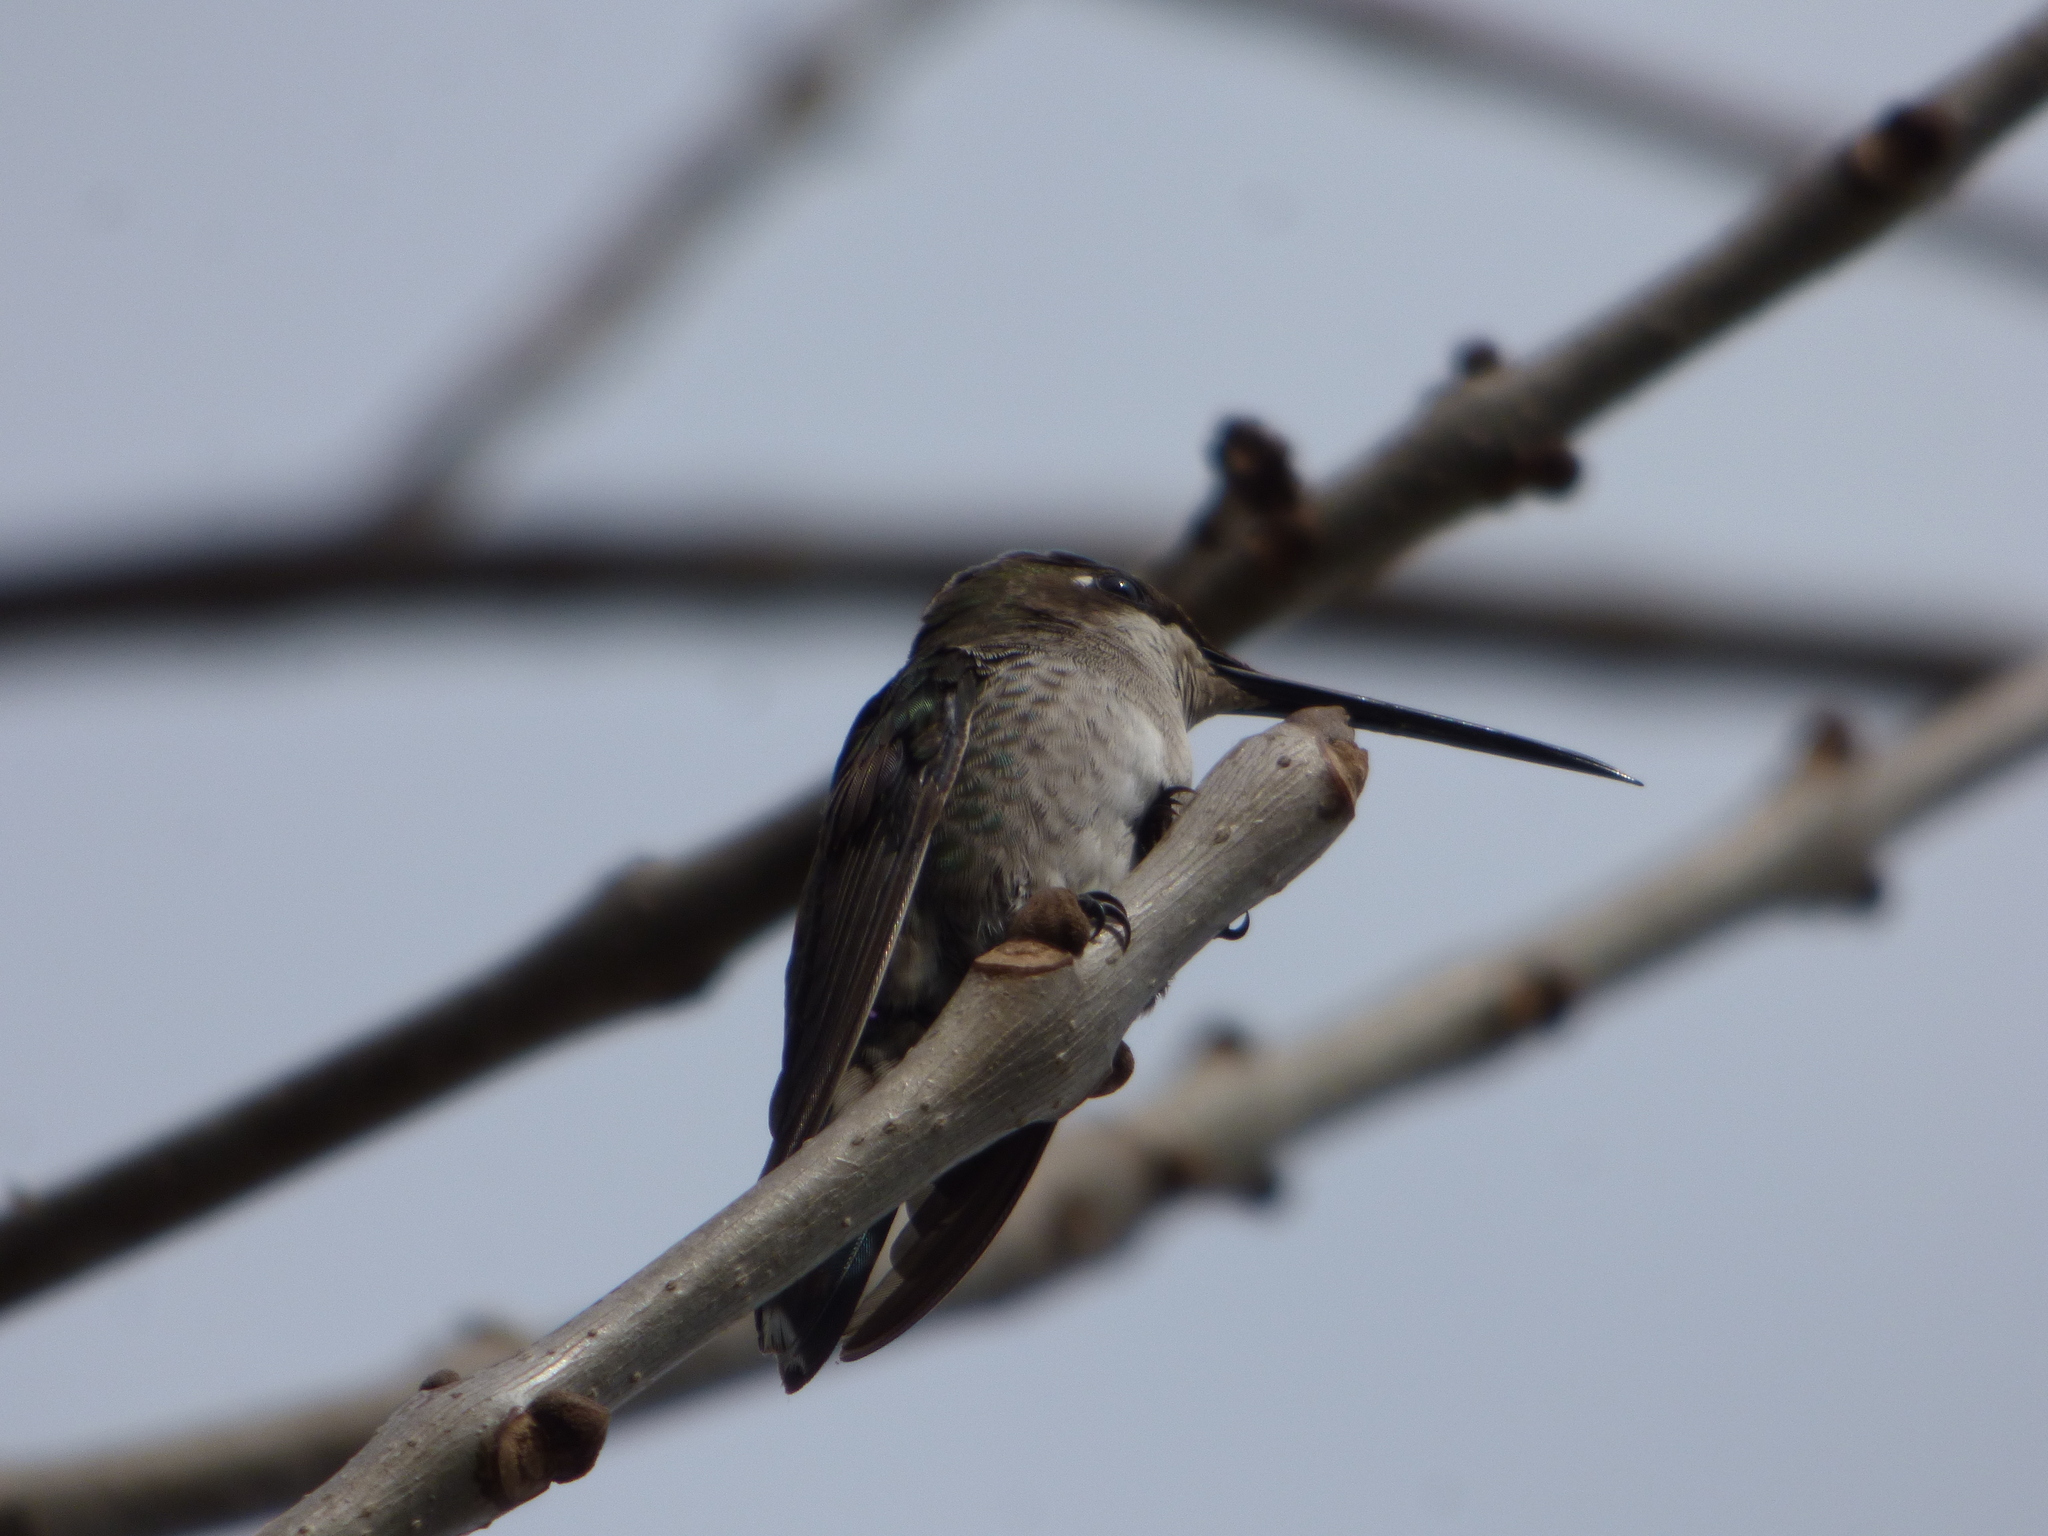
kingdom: Animalia
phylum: Chordata
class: Aves
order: Apodiformes
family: Trochilidae
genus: Heliomaster
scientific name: Heliomaster furcifer
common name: Blue-tufted starthroat
